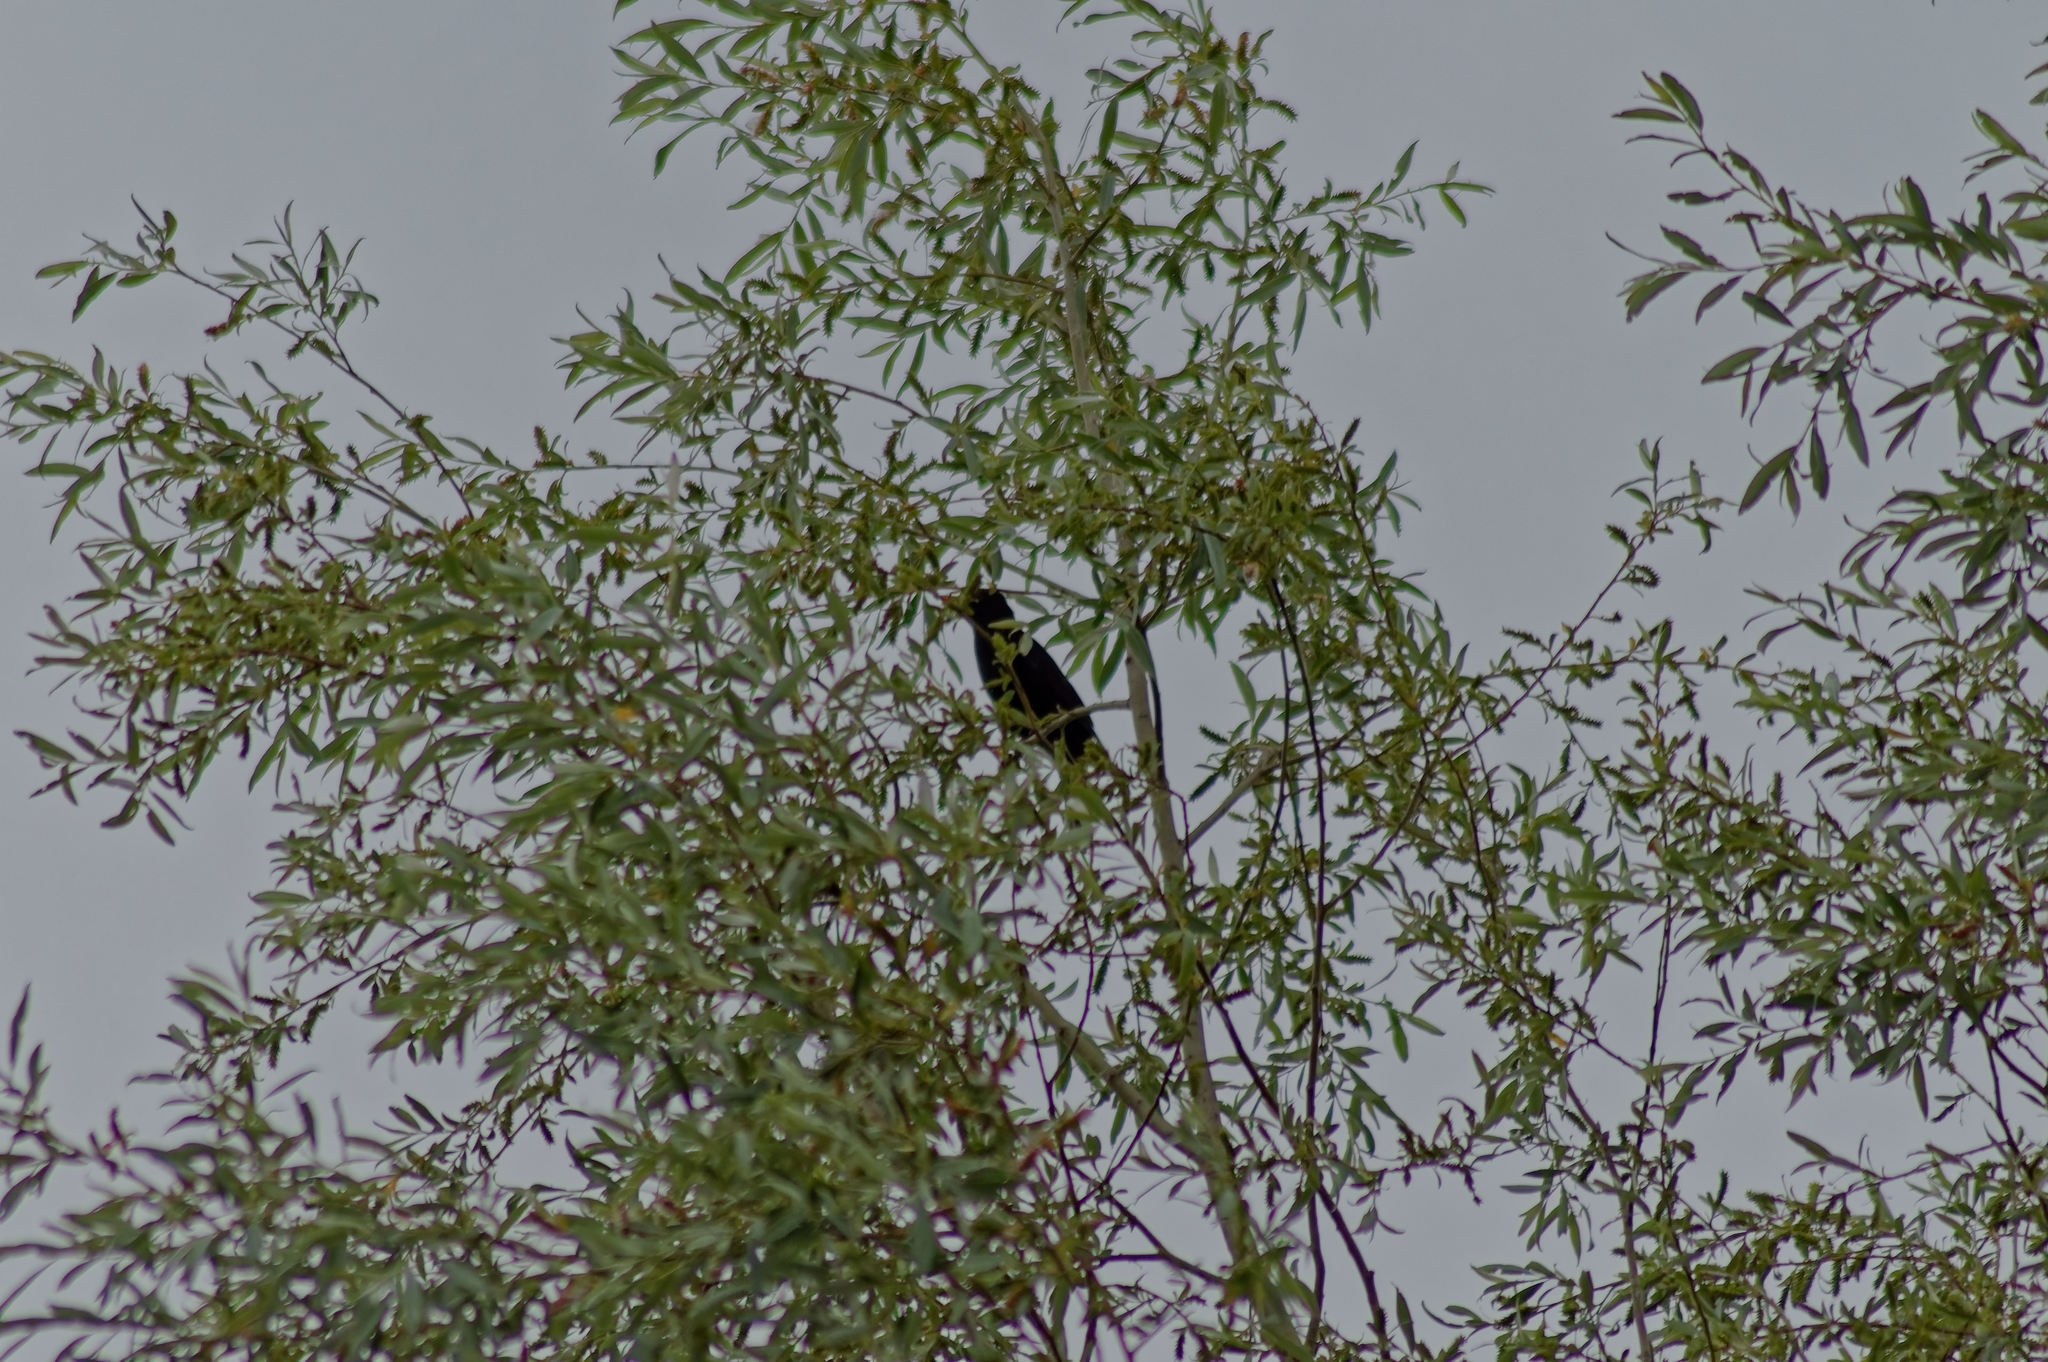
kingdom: Animalia
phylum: Chordata
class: Aves
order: Passeriformes
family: Turdidae
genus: Turdus
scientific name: Turdus merula
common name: Common blackbird
